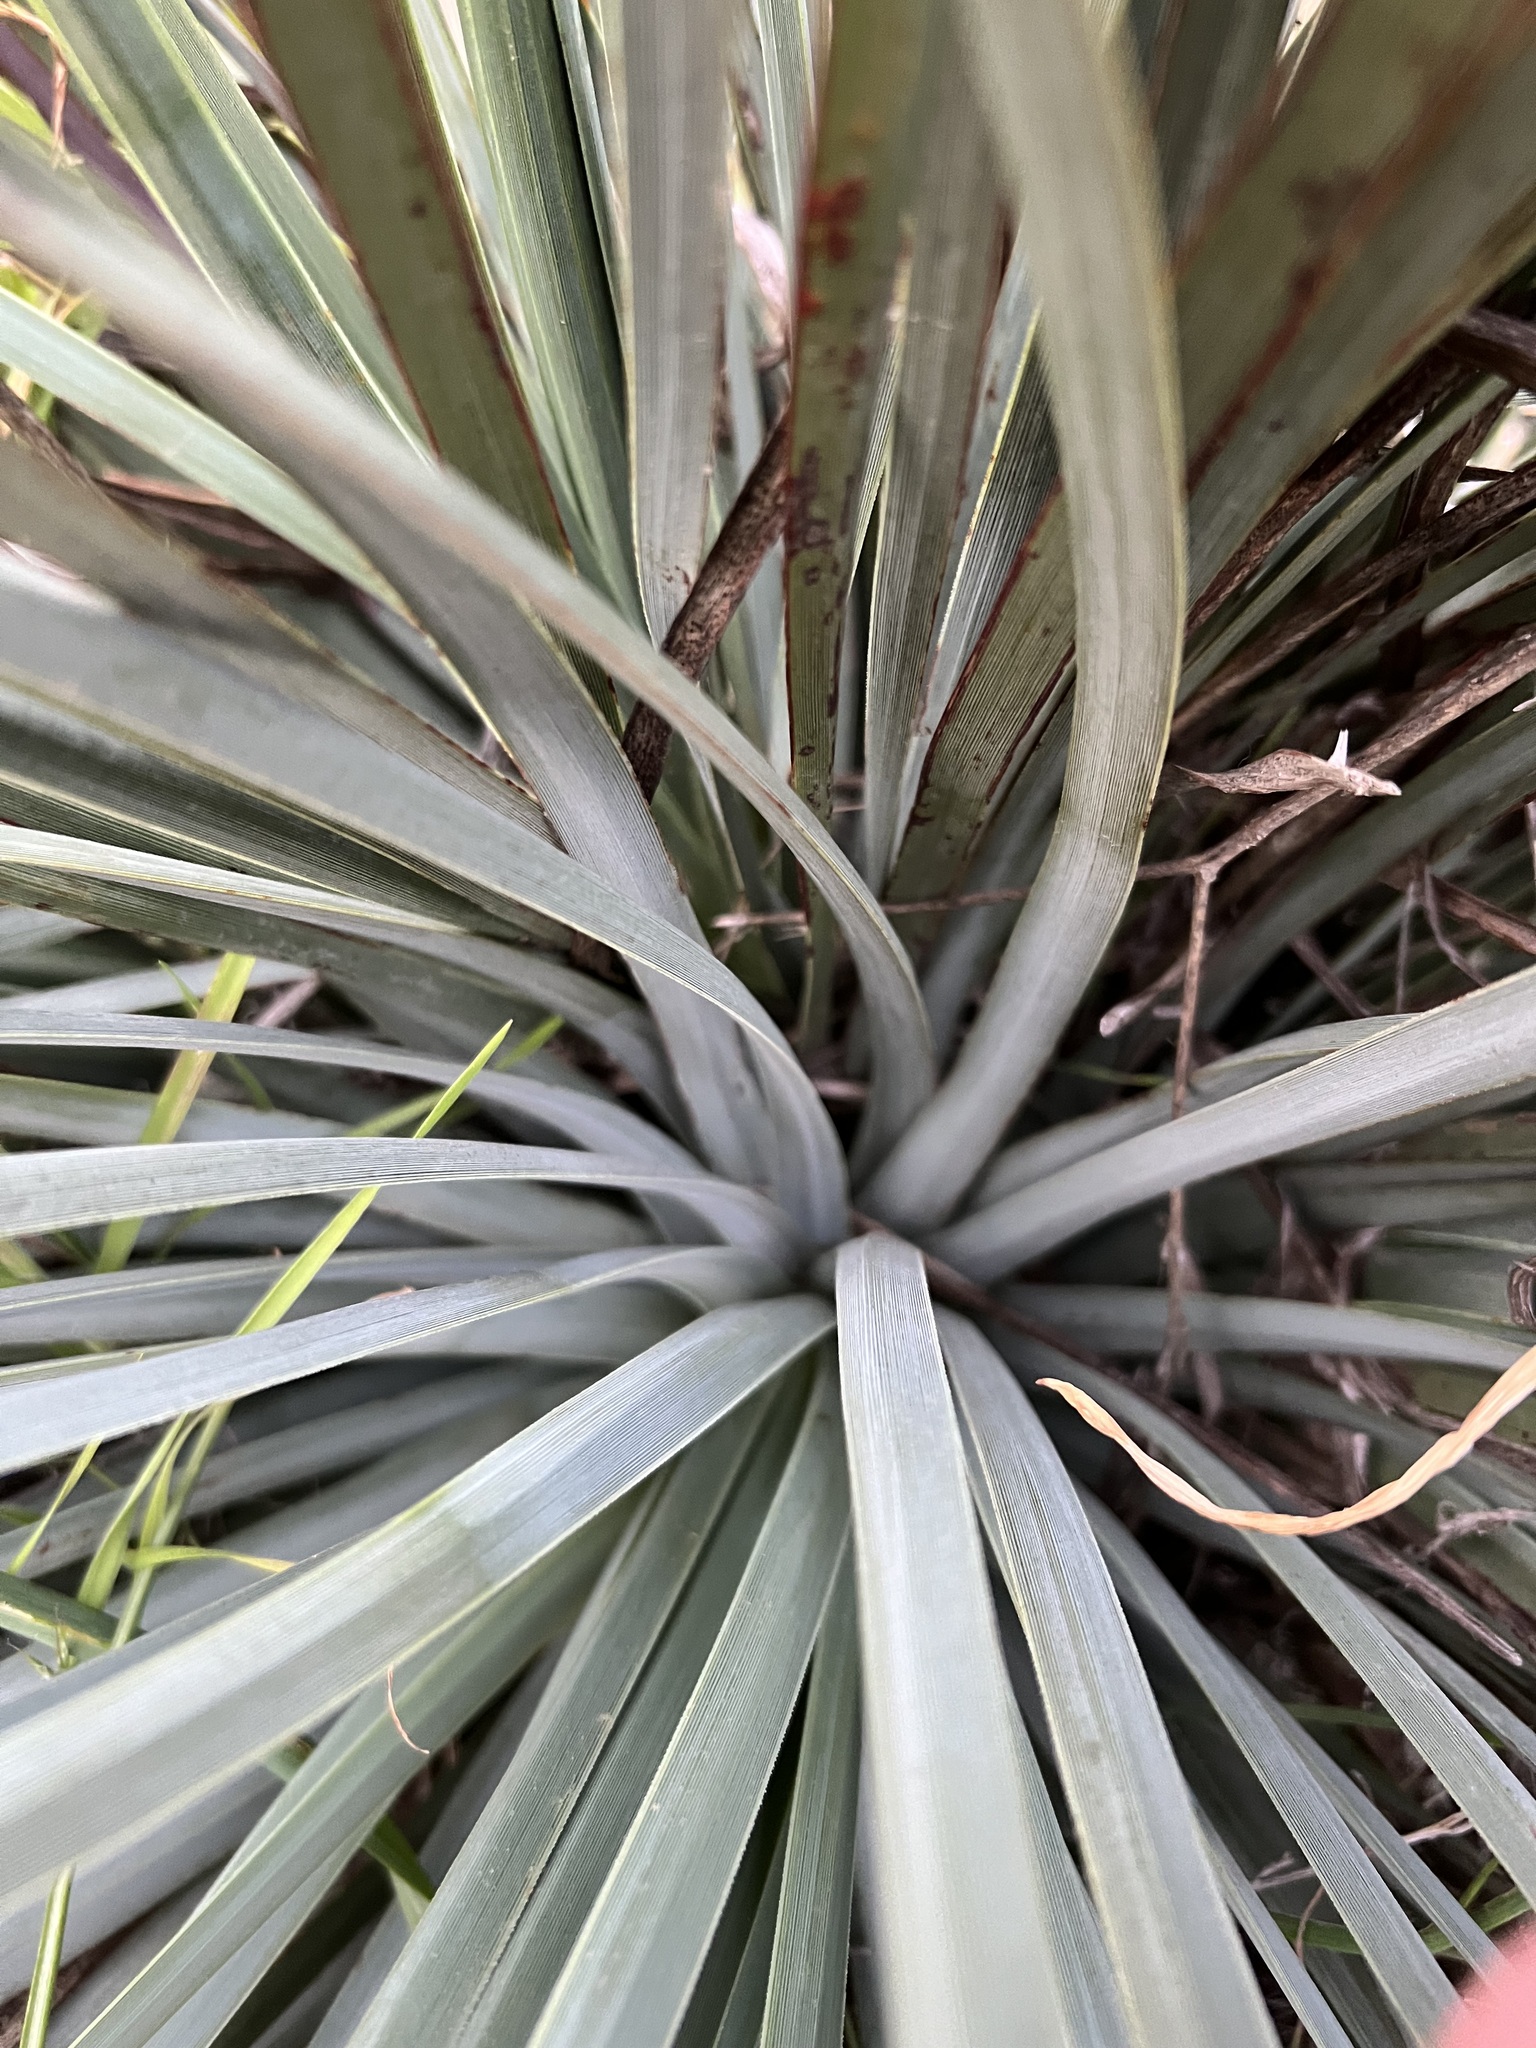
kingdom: Plantae
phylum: Tracheophyta
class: Liliopsida
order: Asparagales
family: Asparagaceae
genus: Hesperoyucca
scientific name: Hesperoyucca whipplei
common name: Our lord's-candle
